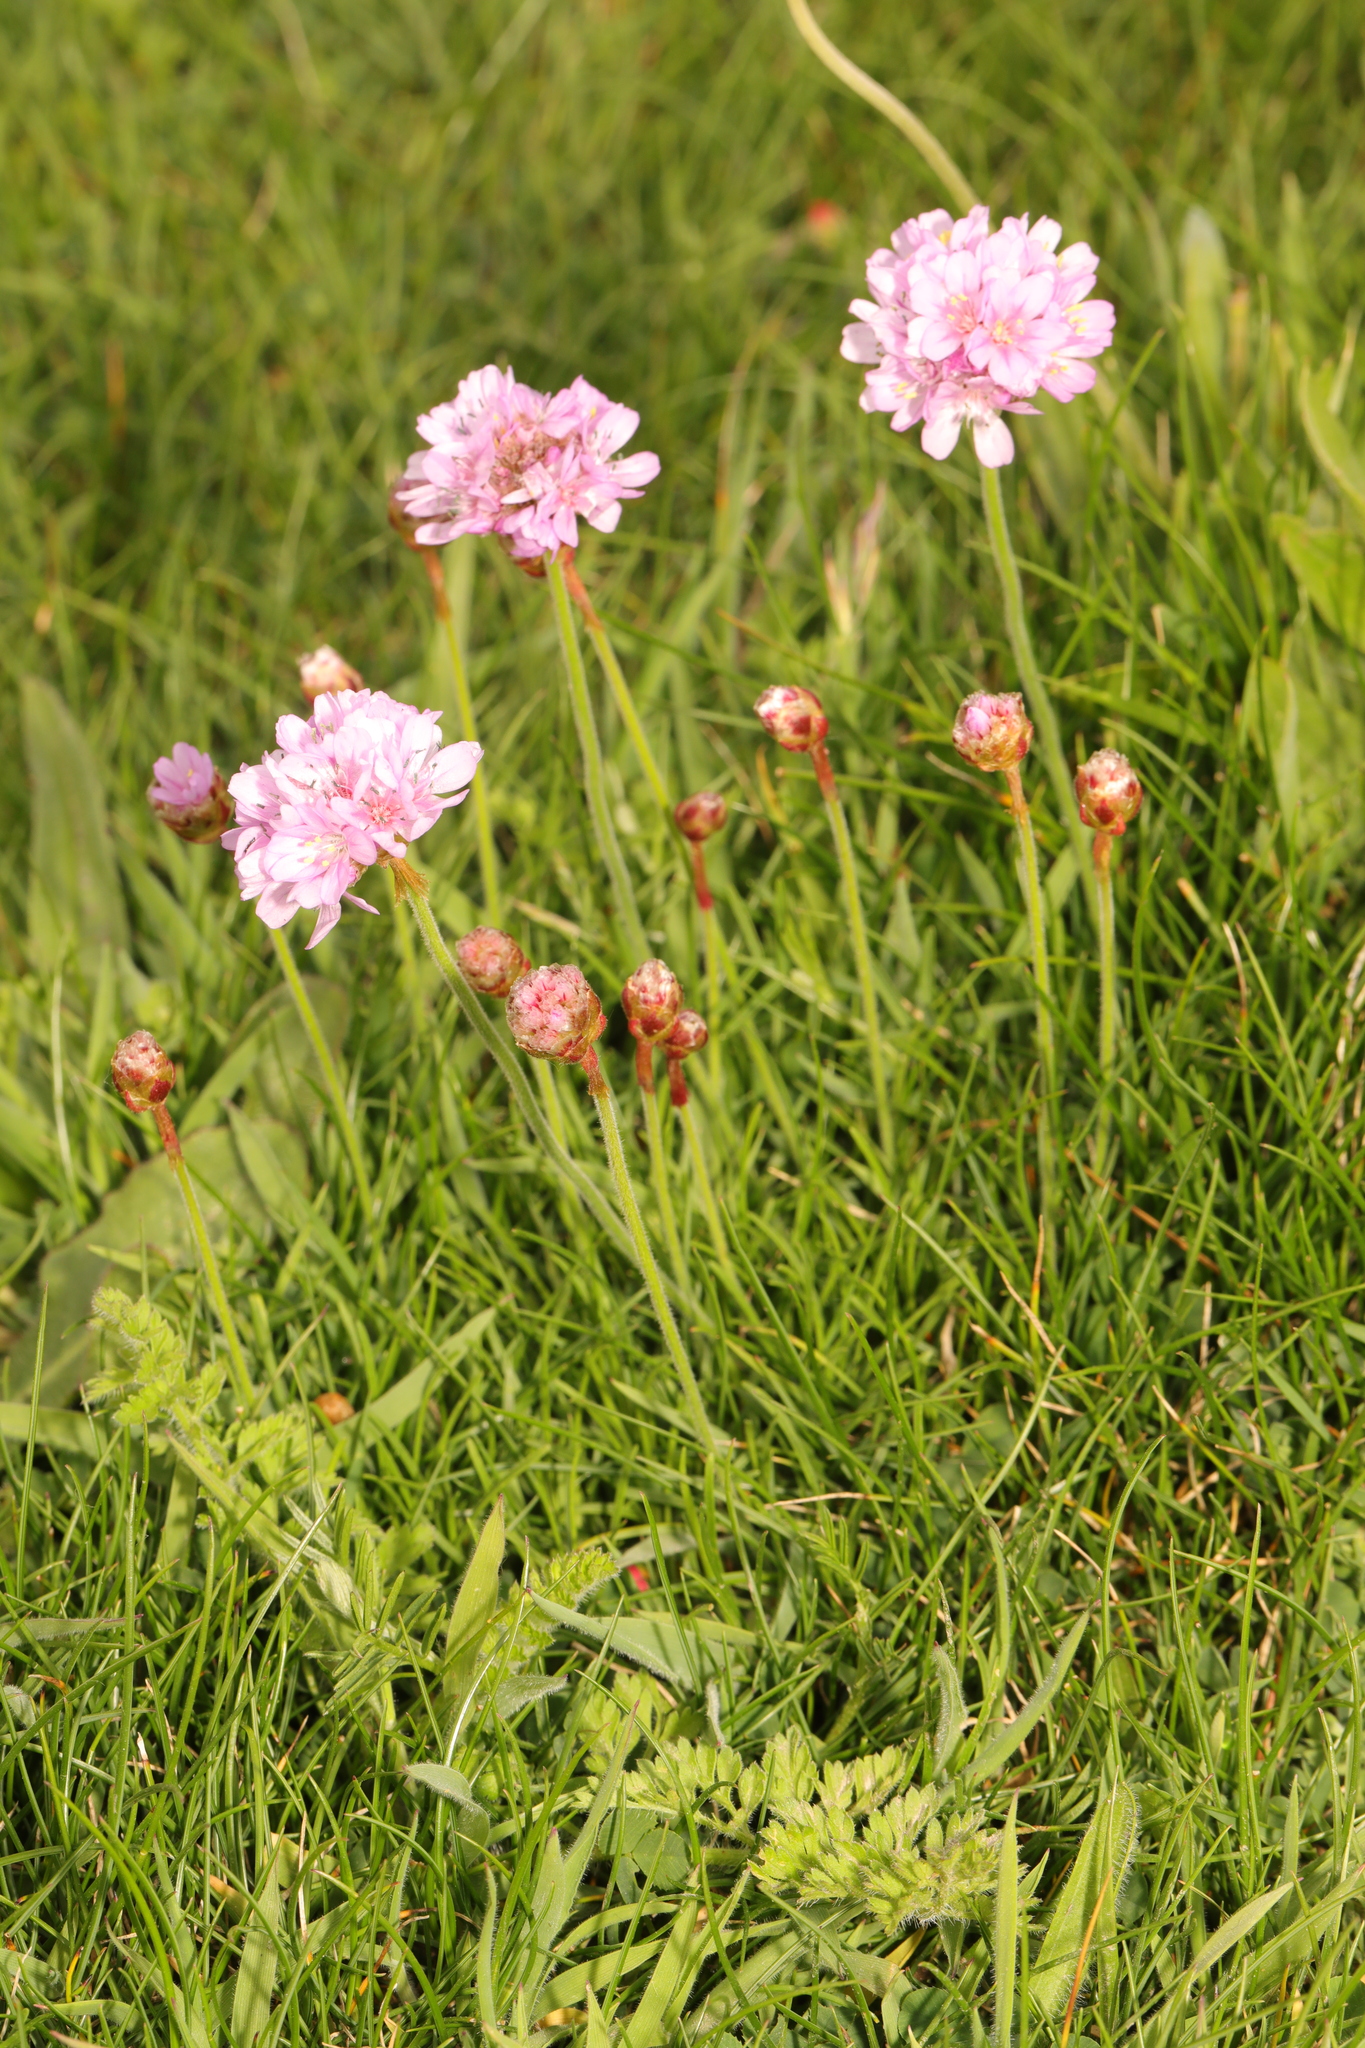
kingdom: Plantae
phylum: Tracheophyta
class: Magnoliopsida
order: Caryophyllales
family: Plumbaginaceae
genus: Armeria
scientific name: Armeria maritima
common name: Thrift
